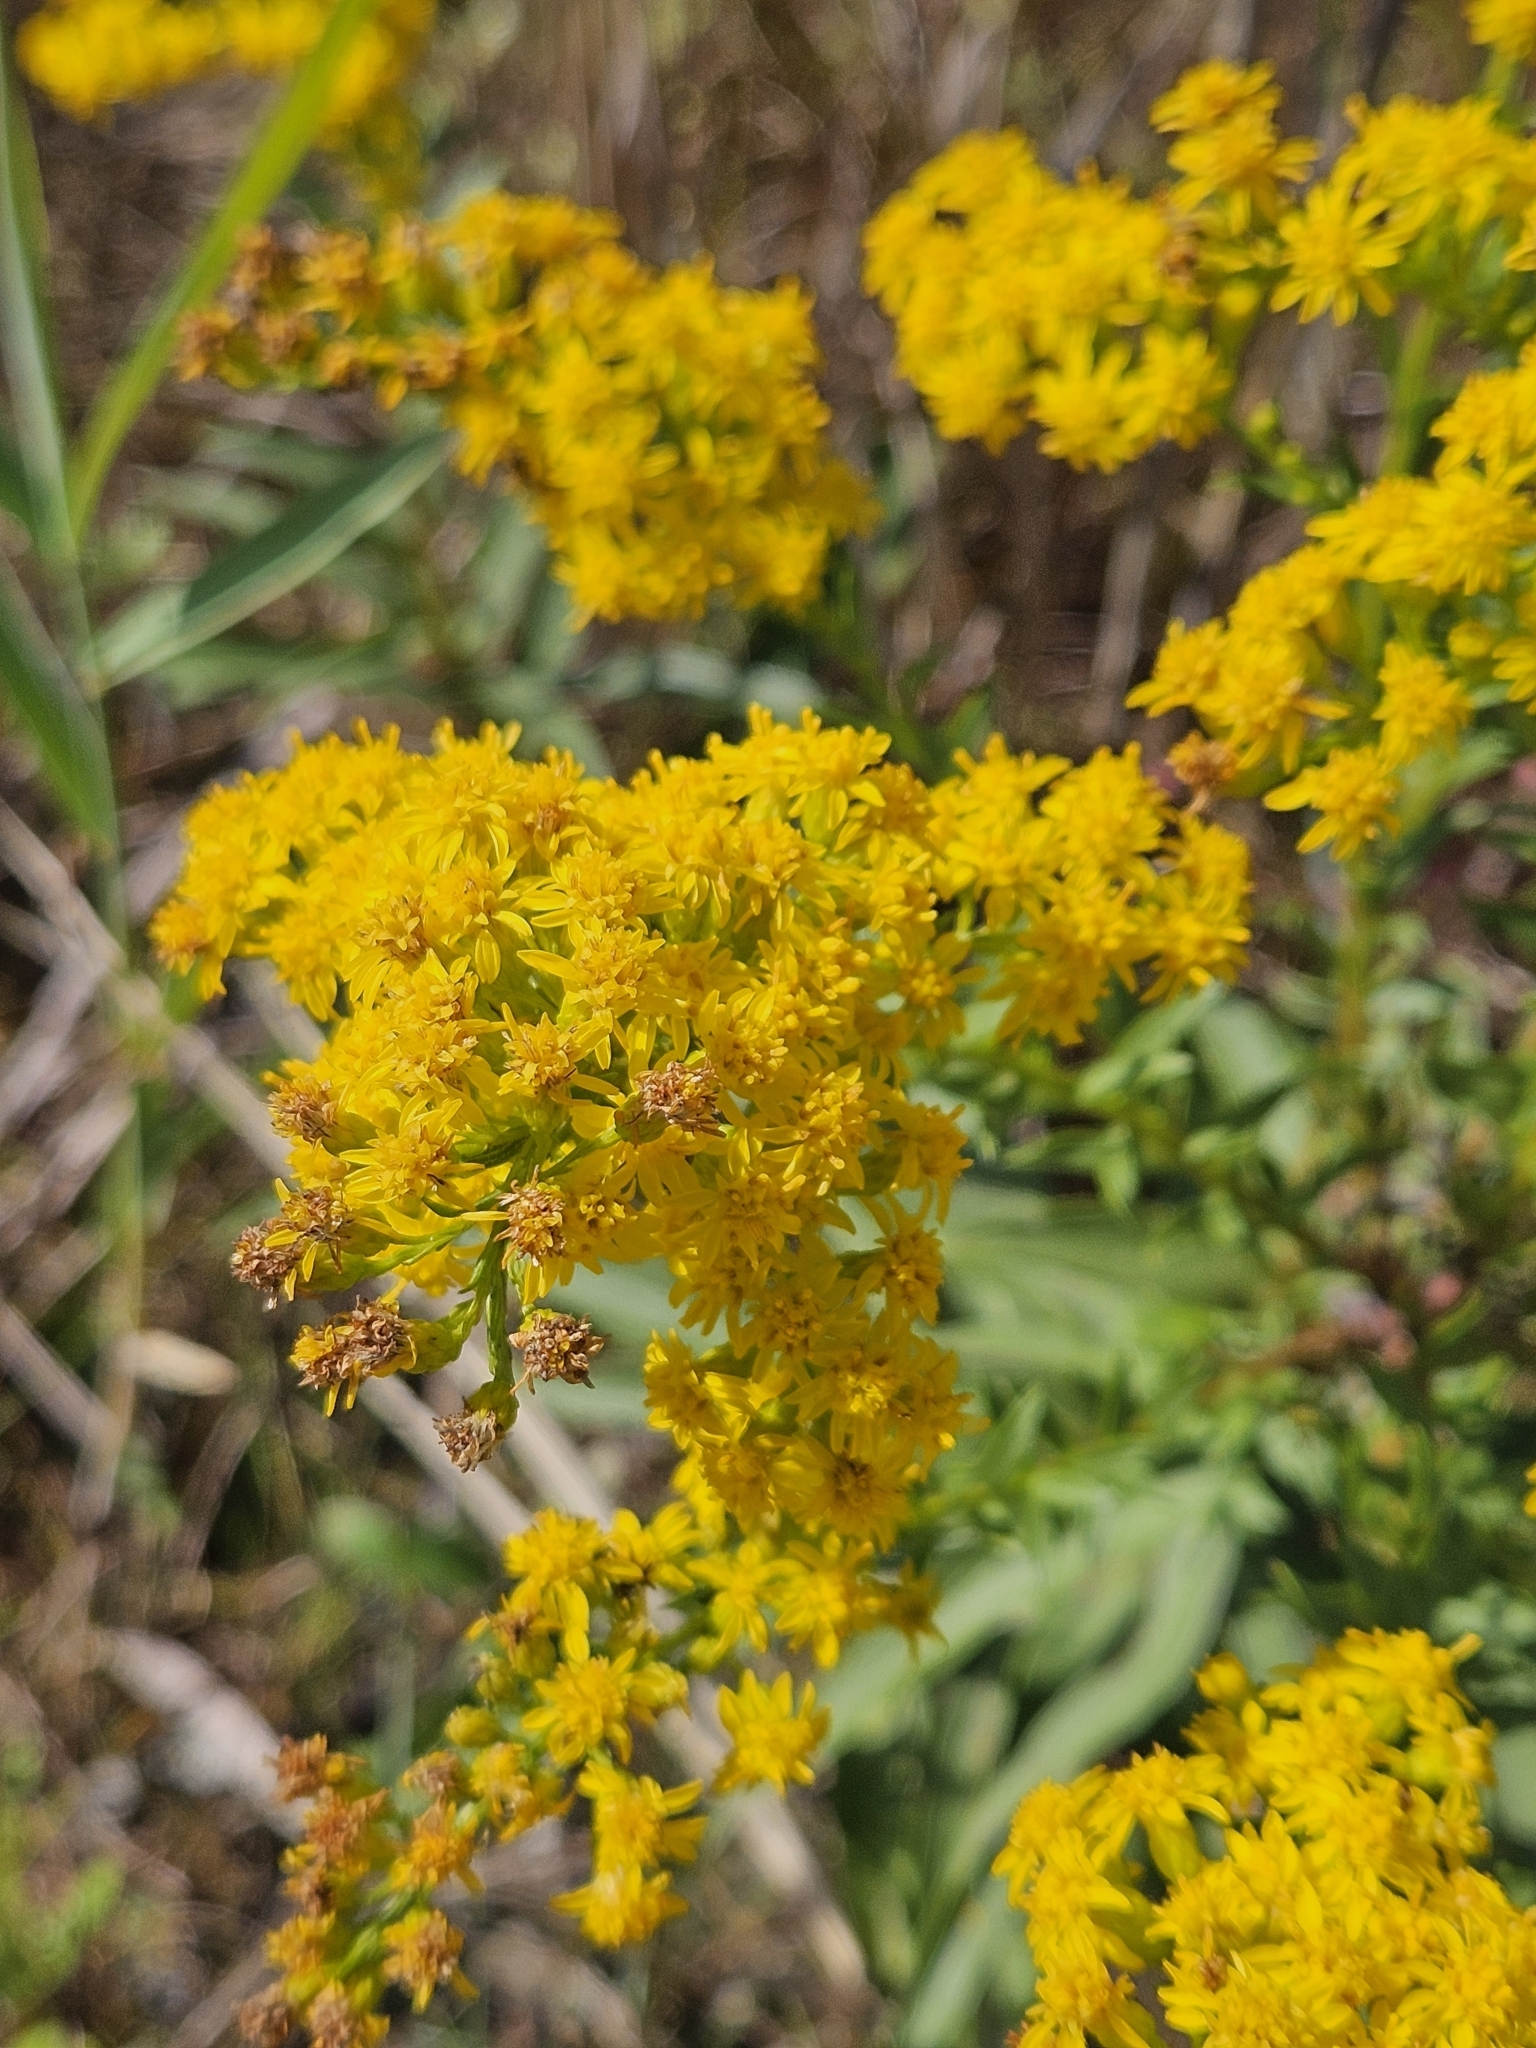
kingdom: Plantae
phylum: Tracheophyta
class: Magnoliopsida
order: Asterales
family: Asteraceae
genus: Solidago
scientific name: Solidago sempervirens
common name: Salt-marsh goldenrod
